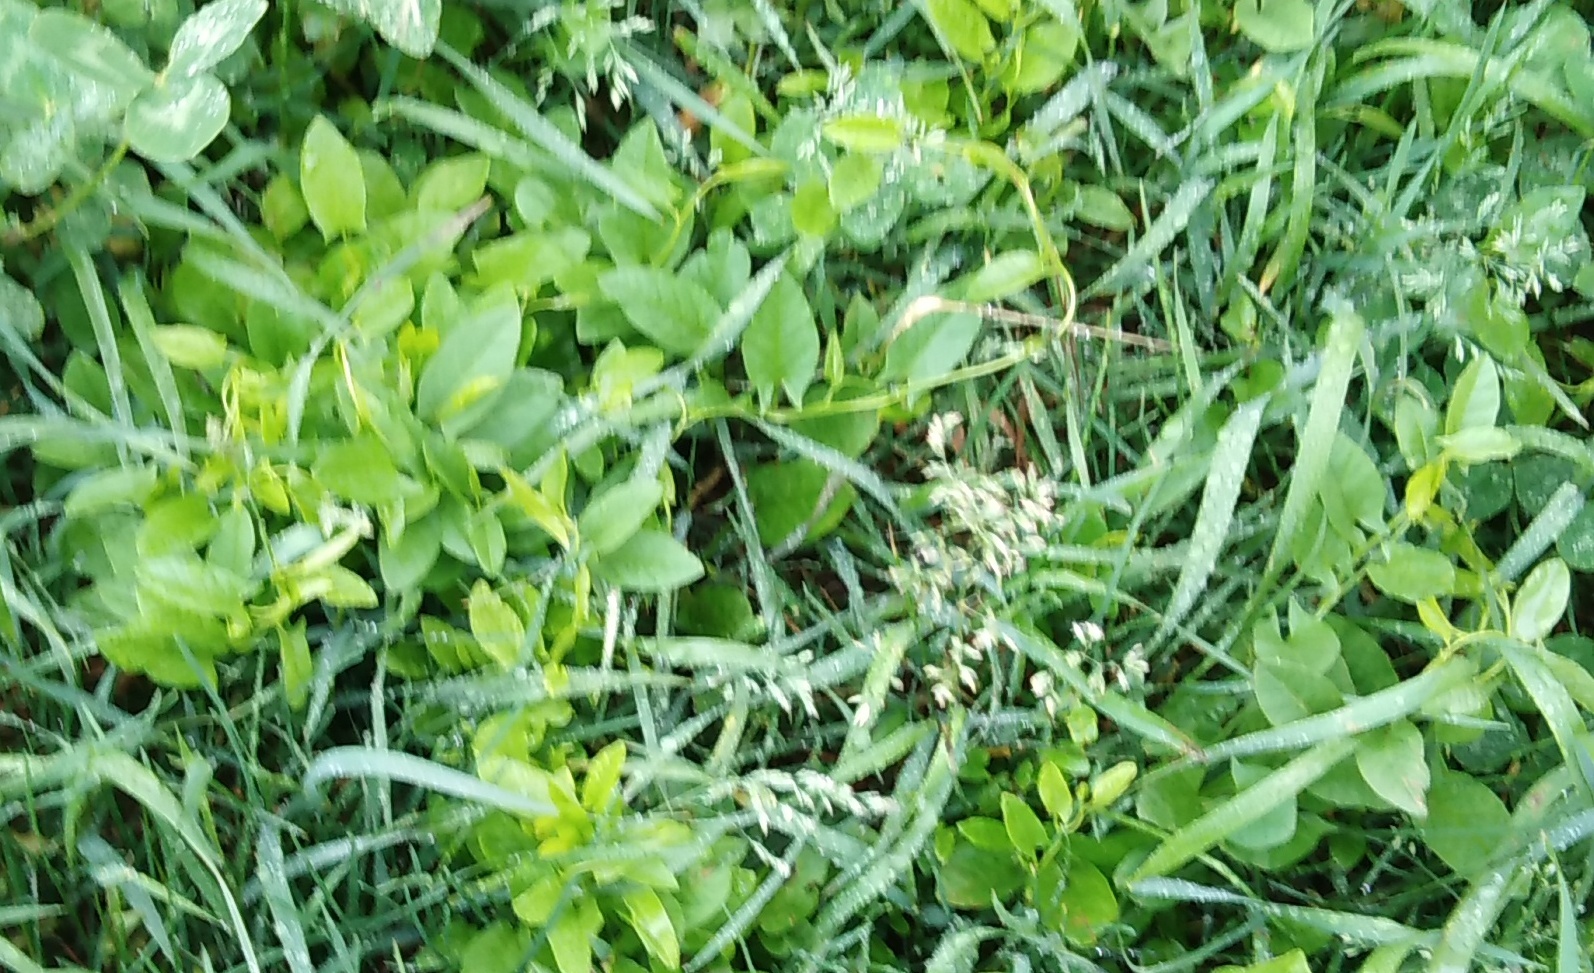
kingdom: Plantae
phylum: Tracheophyta
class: Magnoliopsida
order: Solanales
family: Convolvulaceae
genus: Convolvulus
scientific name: Convolvulus arvensis
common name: Field bindweed
